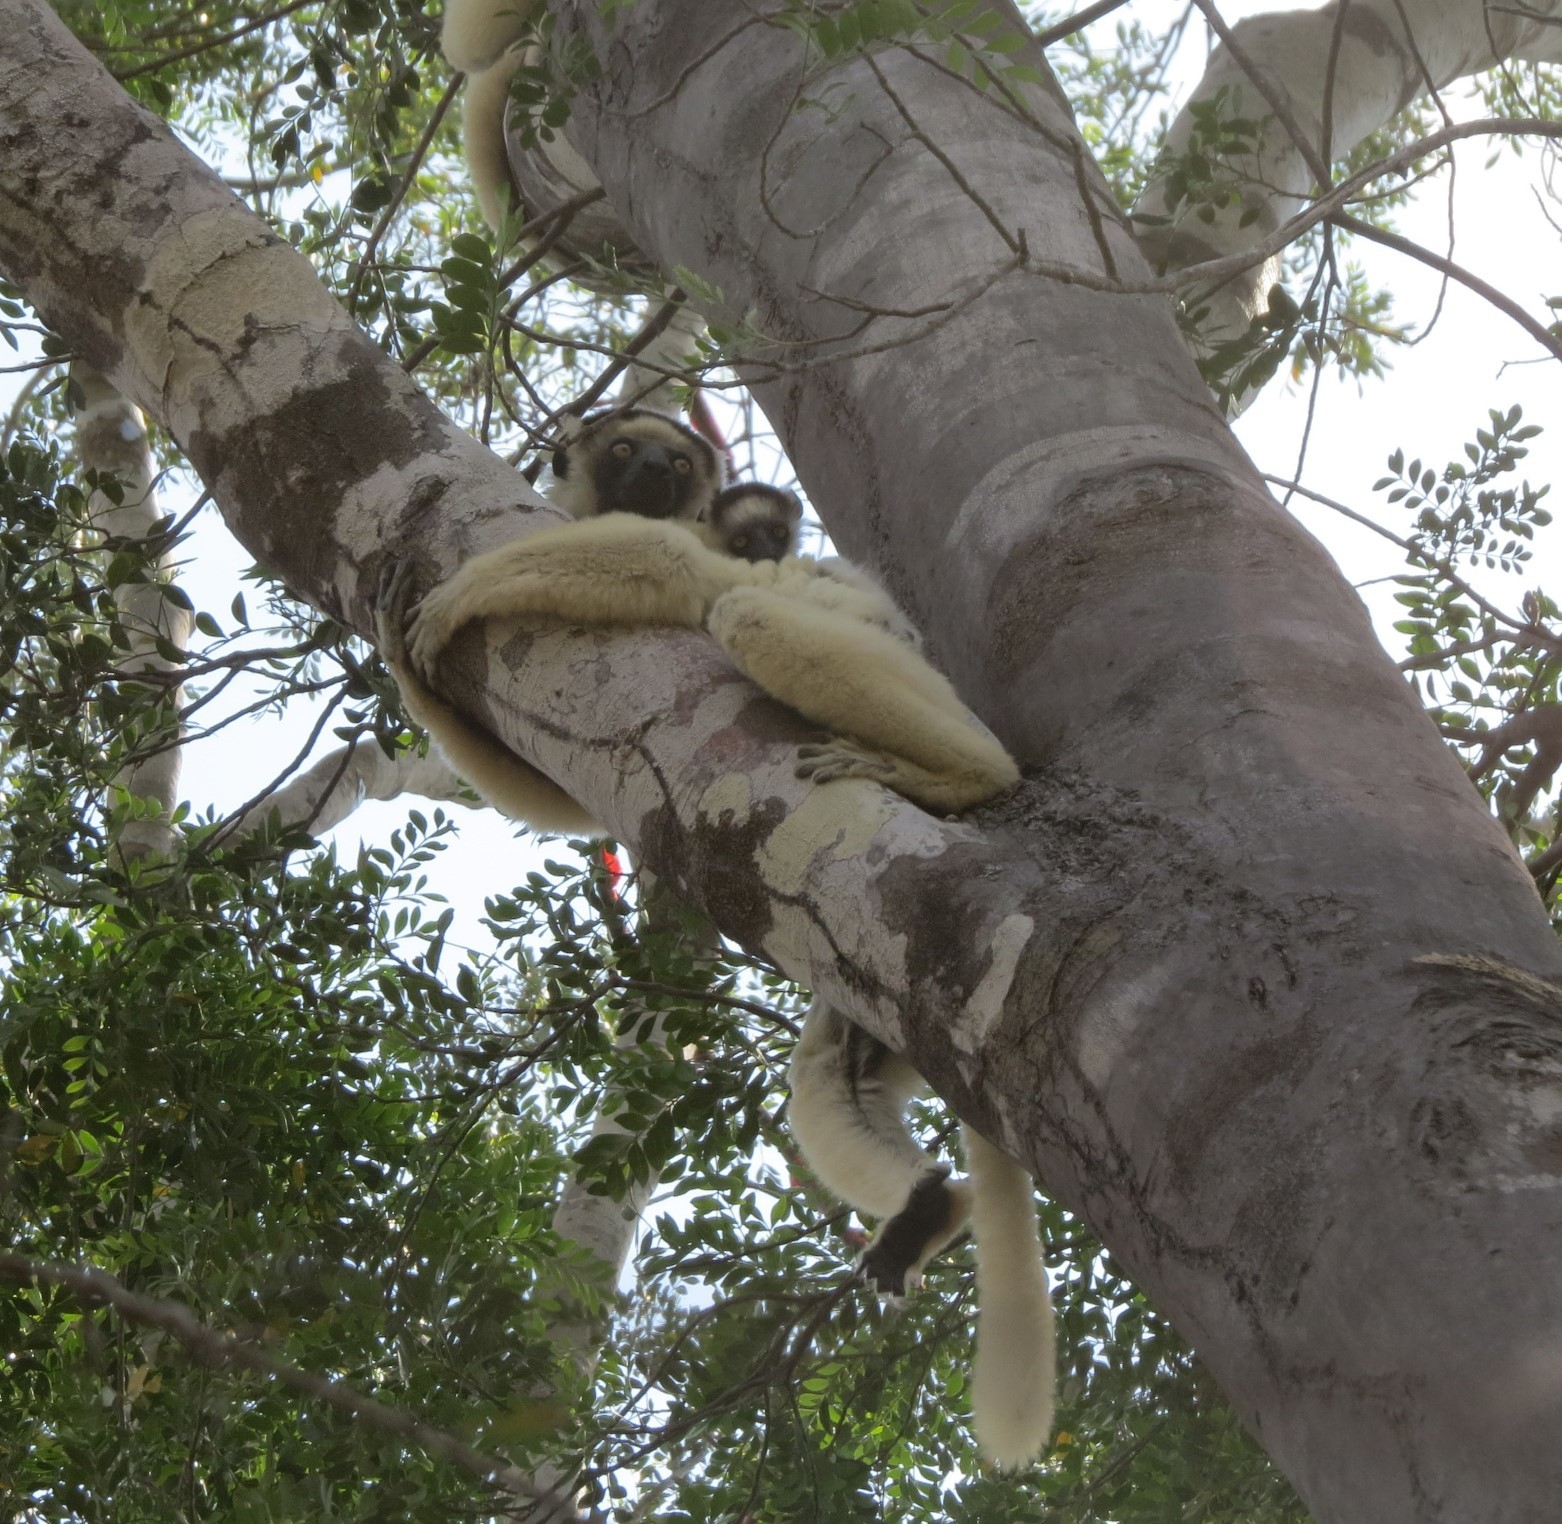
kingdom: Animalia
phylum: Chordata
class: Mammalia
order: Primates
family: Indriidae
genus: Propithecus
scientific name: Propithecus verreauxi
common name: Verreaux's sifaka
